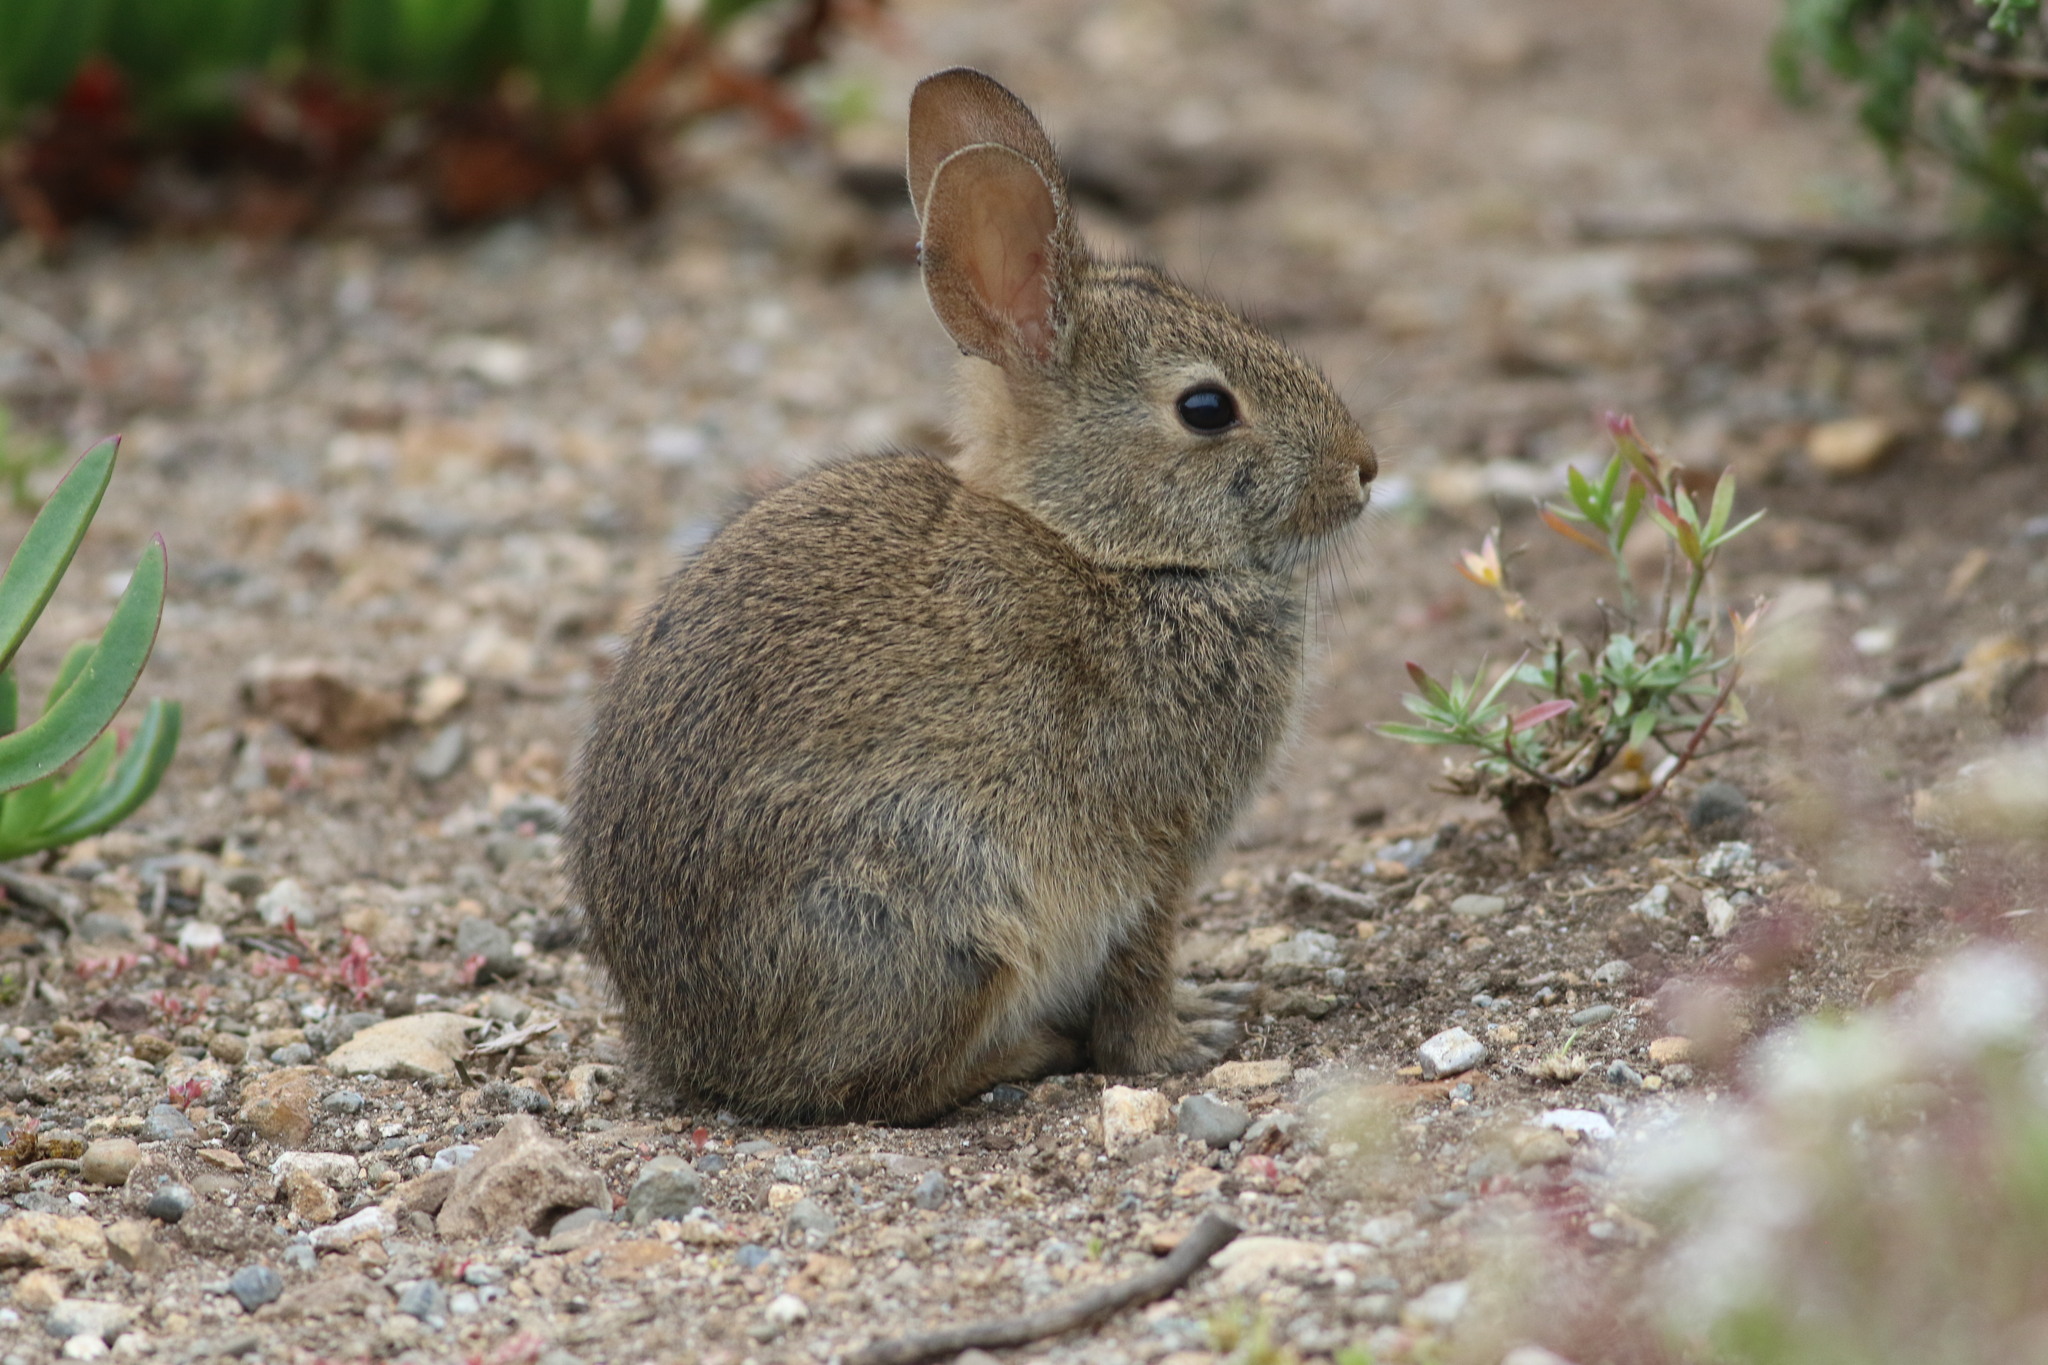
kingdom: Animalia
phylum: Chordata
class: Mammalia
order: Lagomorpha
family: Leporidae
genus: Sylvilagus
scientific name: Sylvilagus bachmani
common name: Brush rabbit
